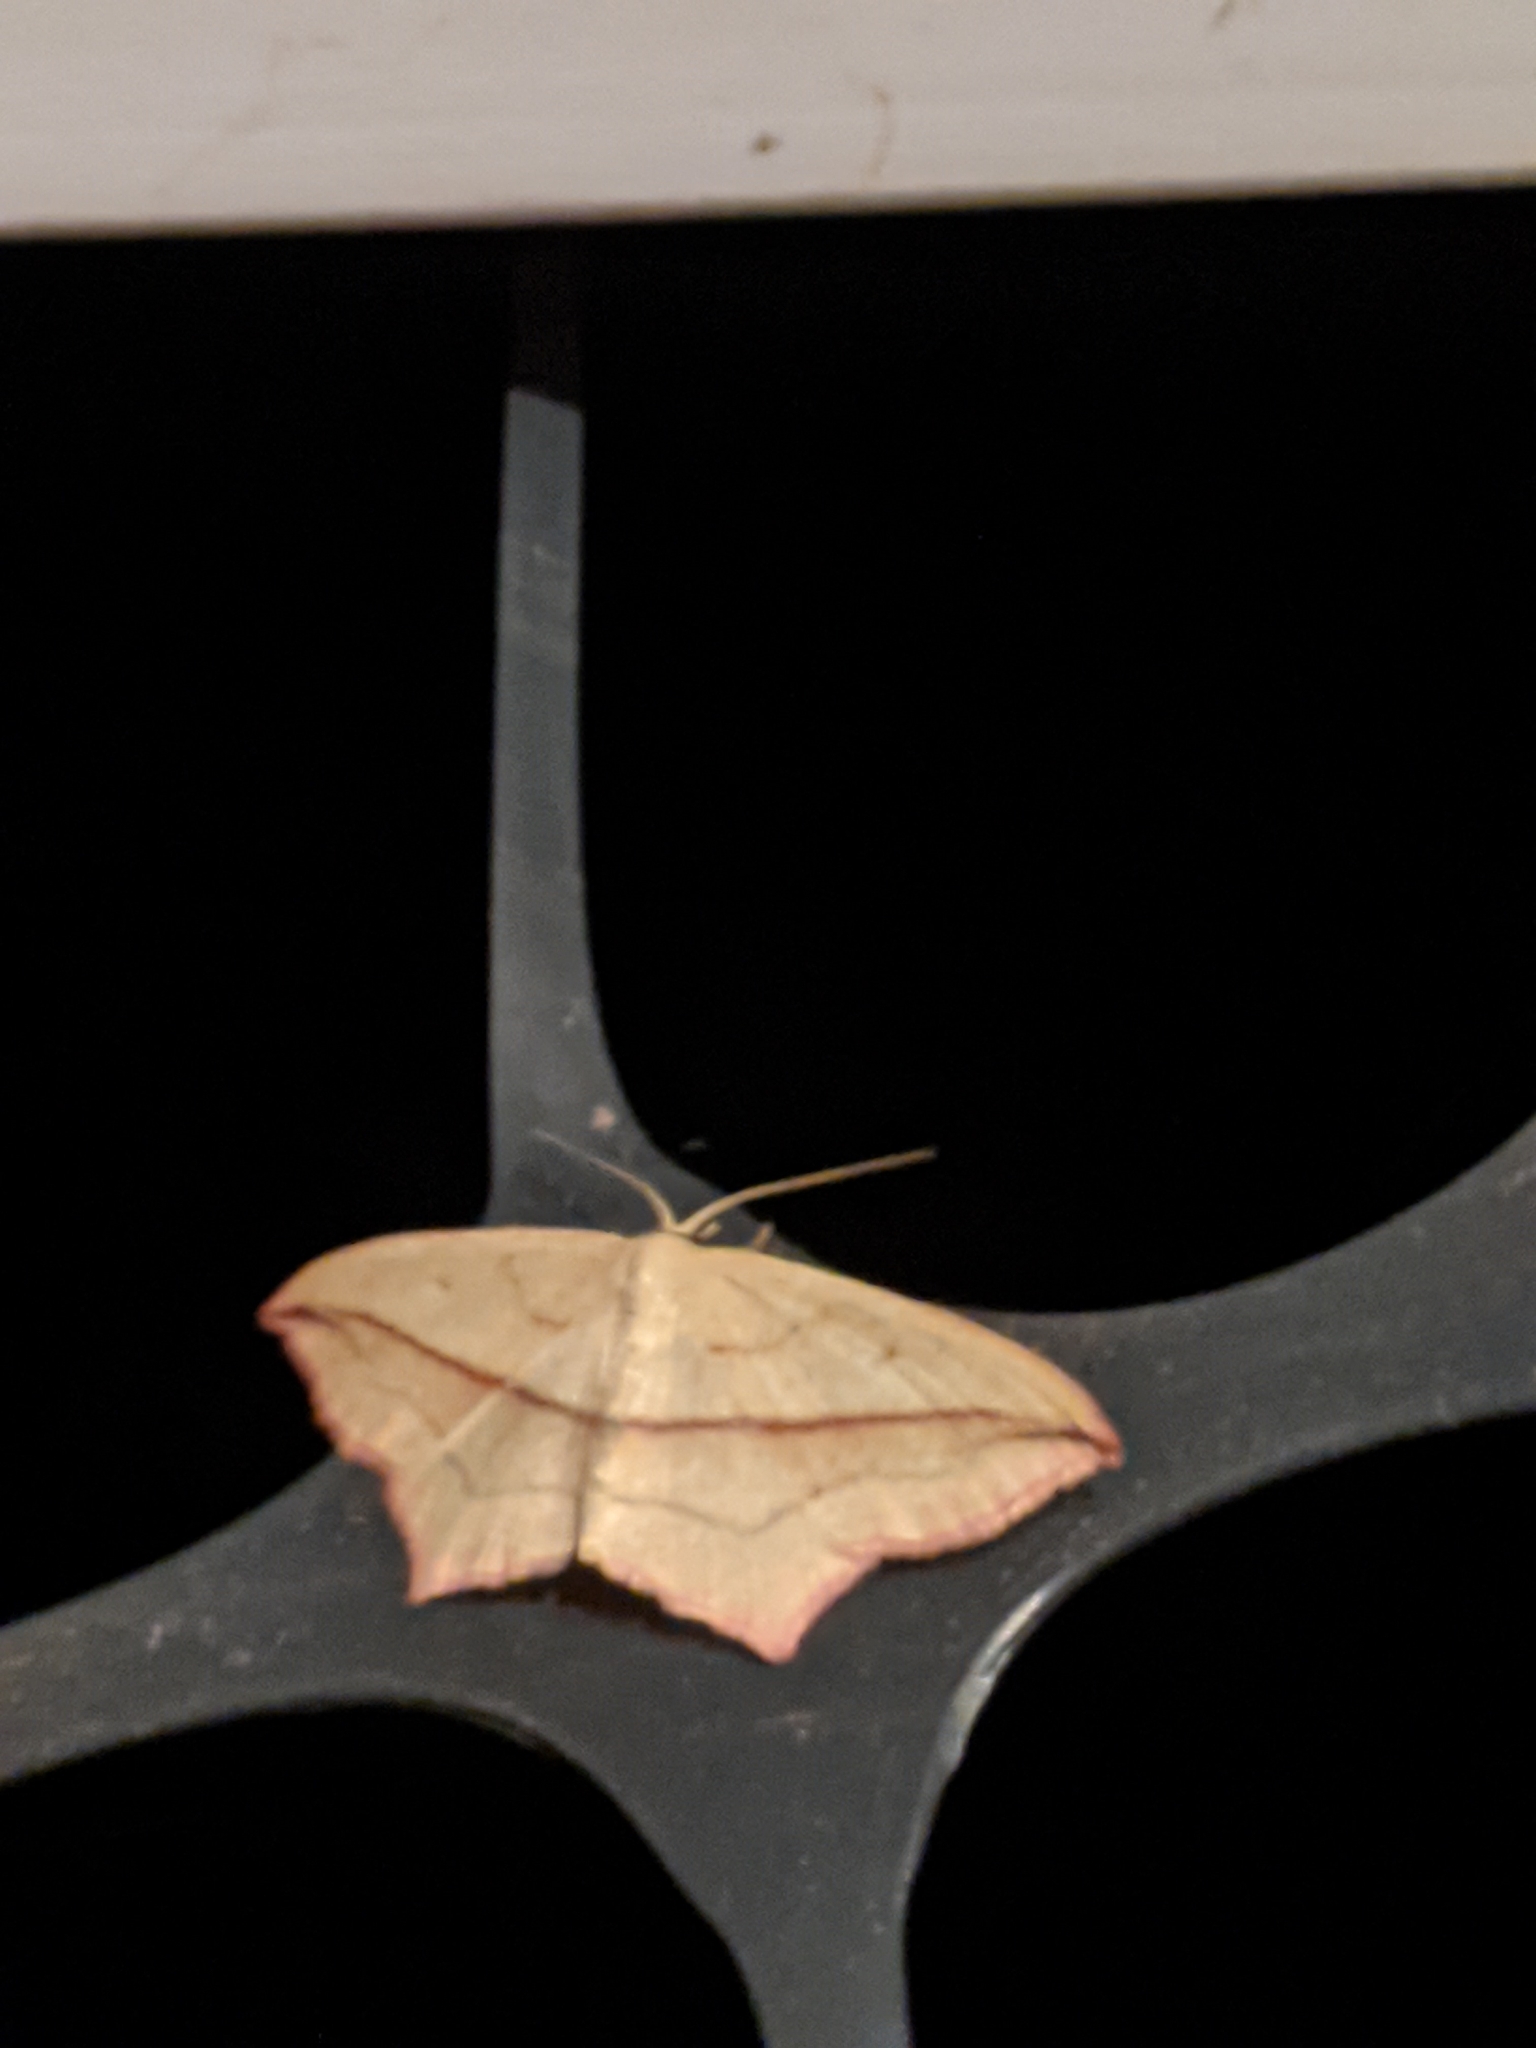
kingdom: Animalia
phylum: Arthropoda
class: Insecta
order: Lepidoptera
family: Geometridae
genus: Timandra
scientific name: Timandra comae
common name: Blood-vein
